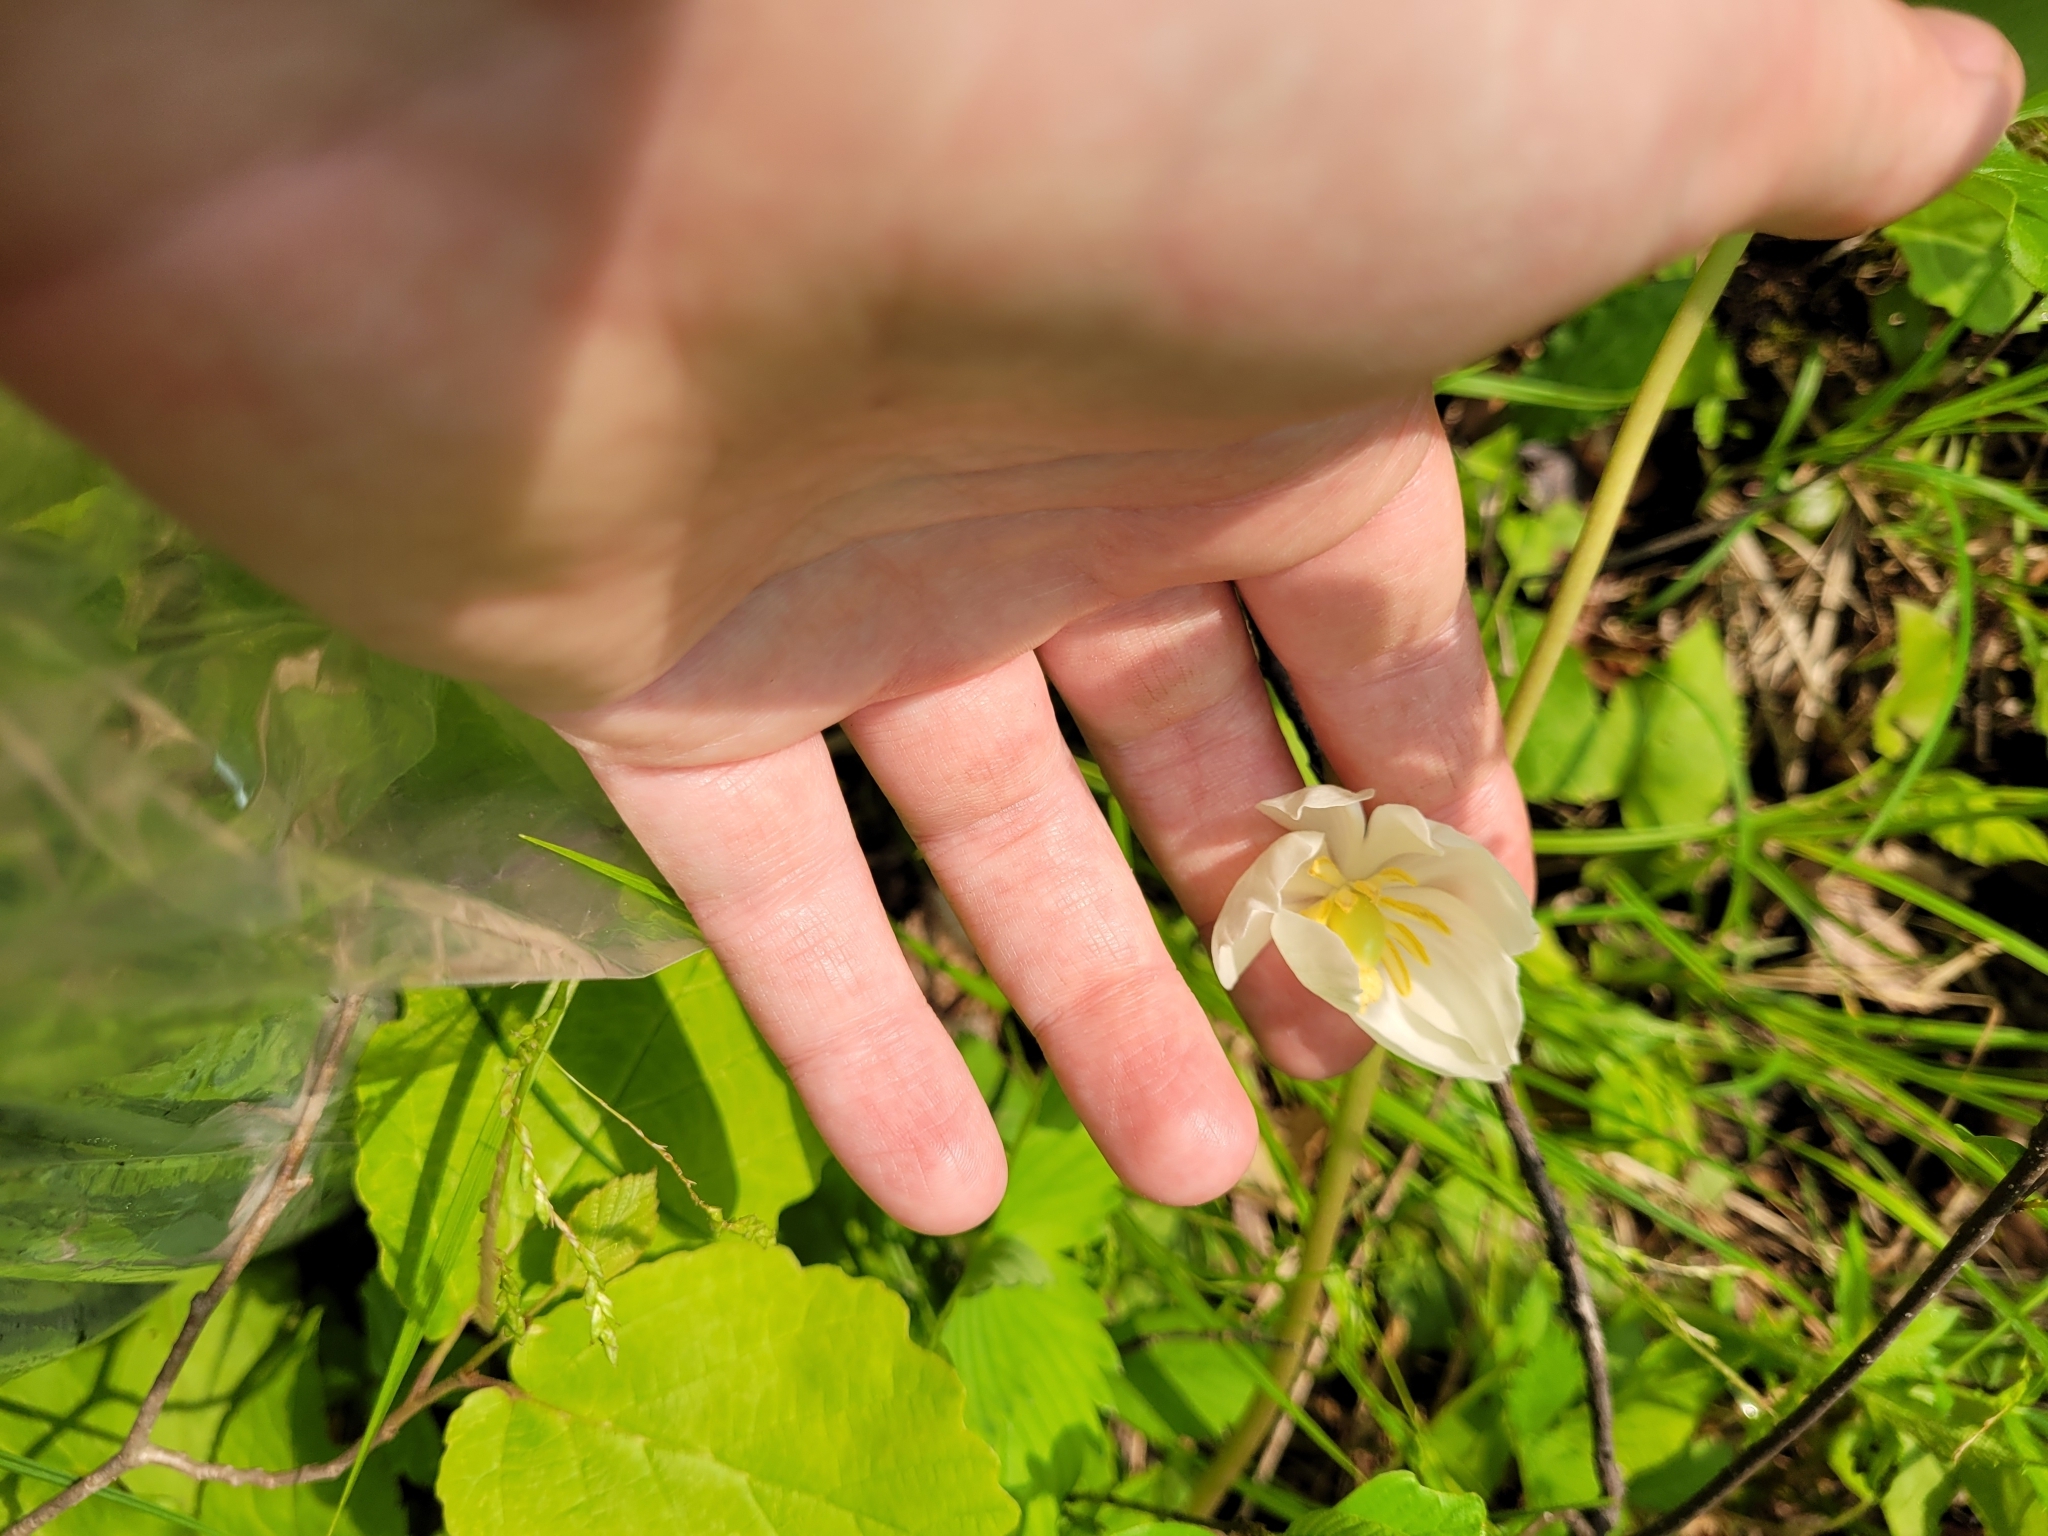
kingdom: Plantae
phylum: Tracheophyta
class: Magnoliopsida
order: Ranunculales
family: Berberidaceae
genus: Podophyllum
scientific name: Podophyllum peltatum
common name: Wild mandrake
